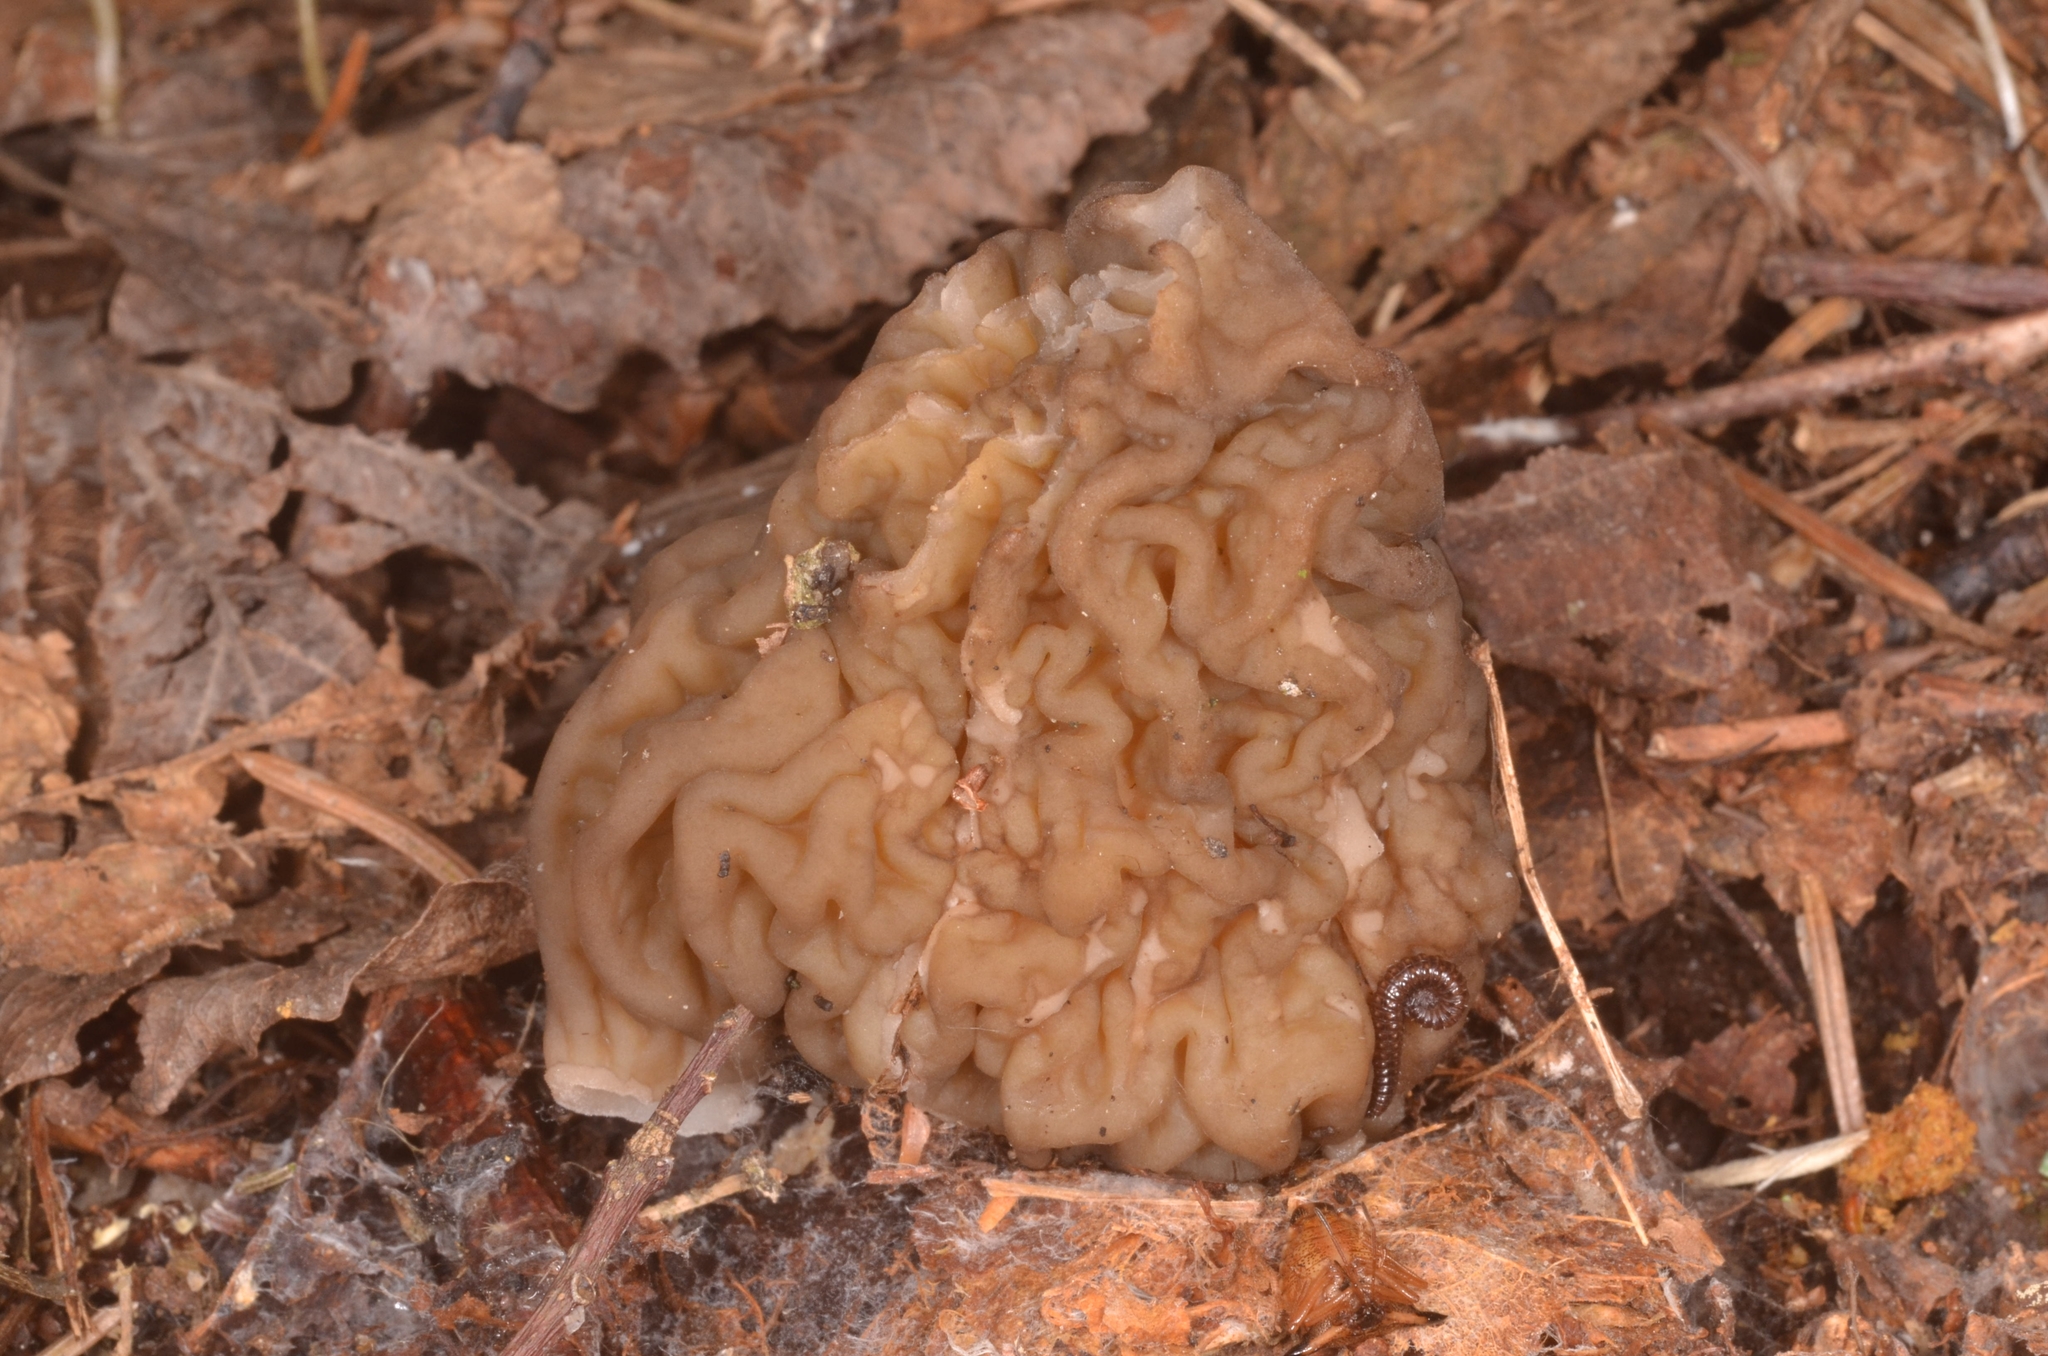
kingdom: Fungi
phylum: Ascomycota
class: Pezizomycetes
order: Pezizales
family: Morchellaceae
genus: Verpa
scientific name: Verpa bohemica
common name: Wrinkled thimble morel
